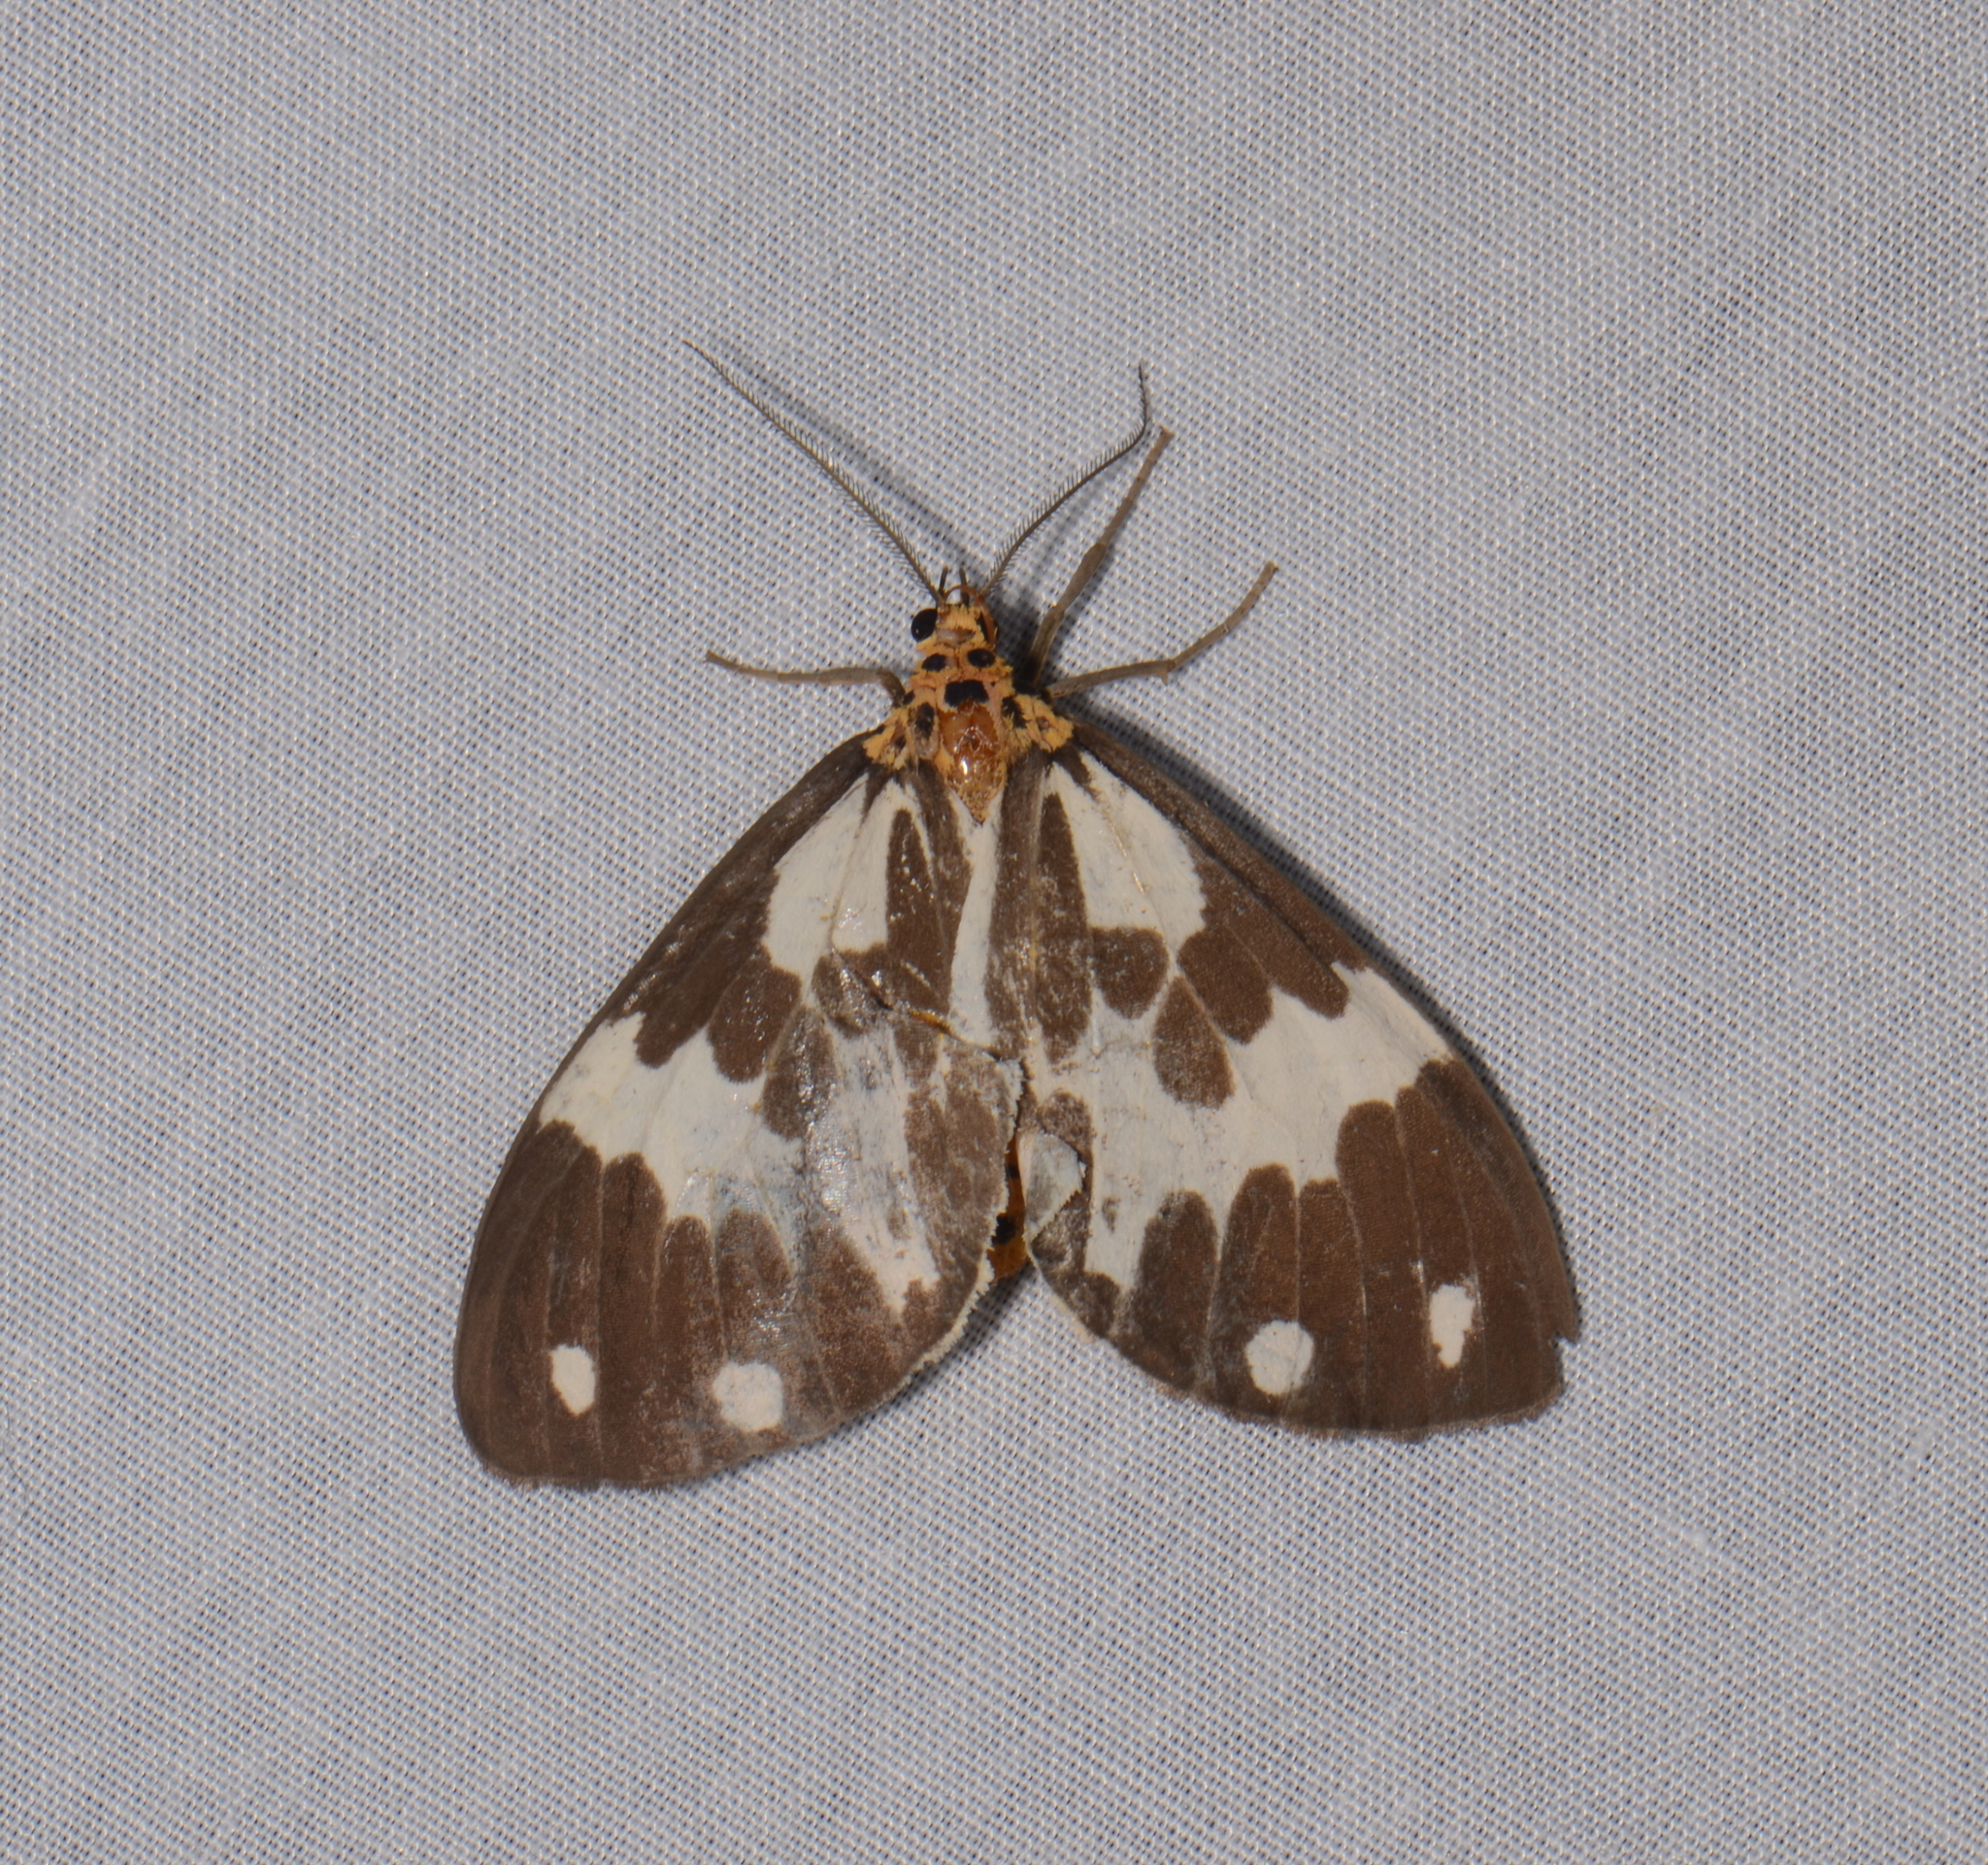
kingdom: Animalia
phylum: Arthropoda
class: Insecta
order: Lepidoptera
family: Erebidae
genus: Nyctemera
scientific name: Nyctemera muelleri
